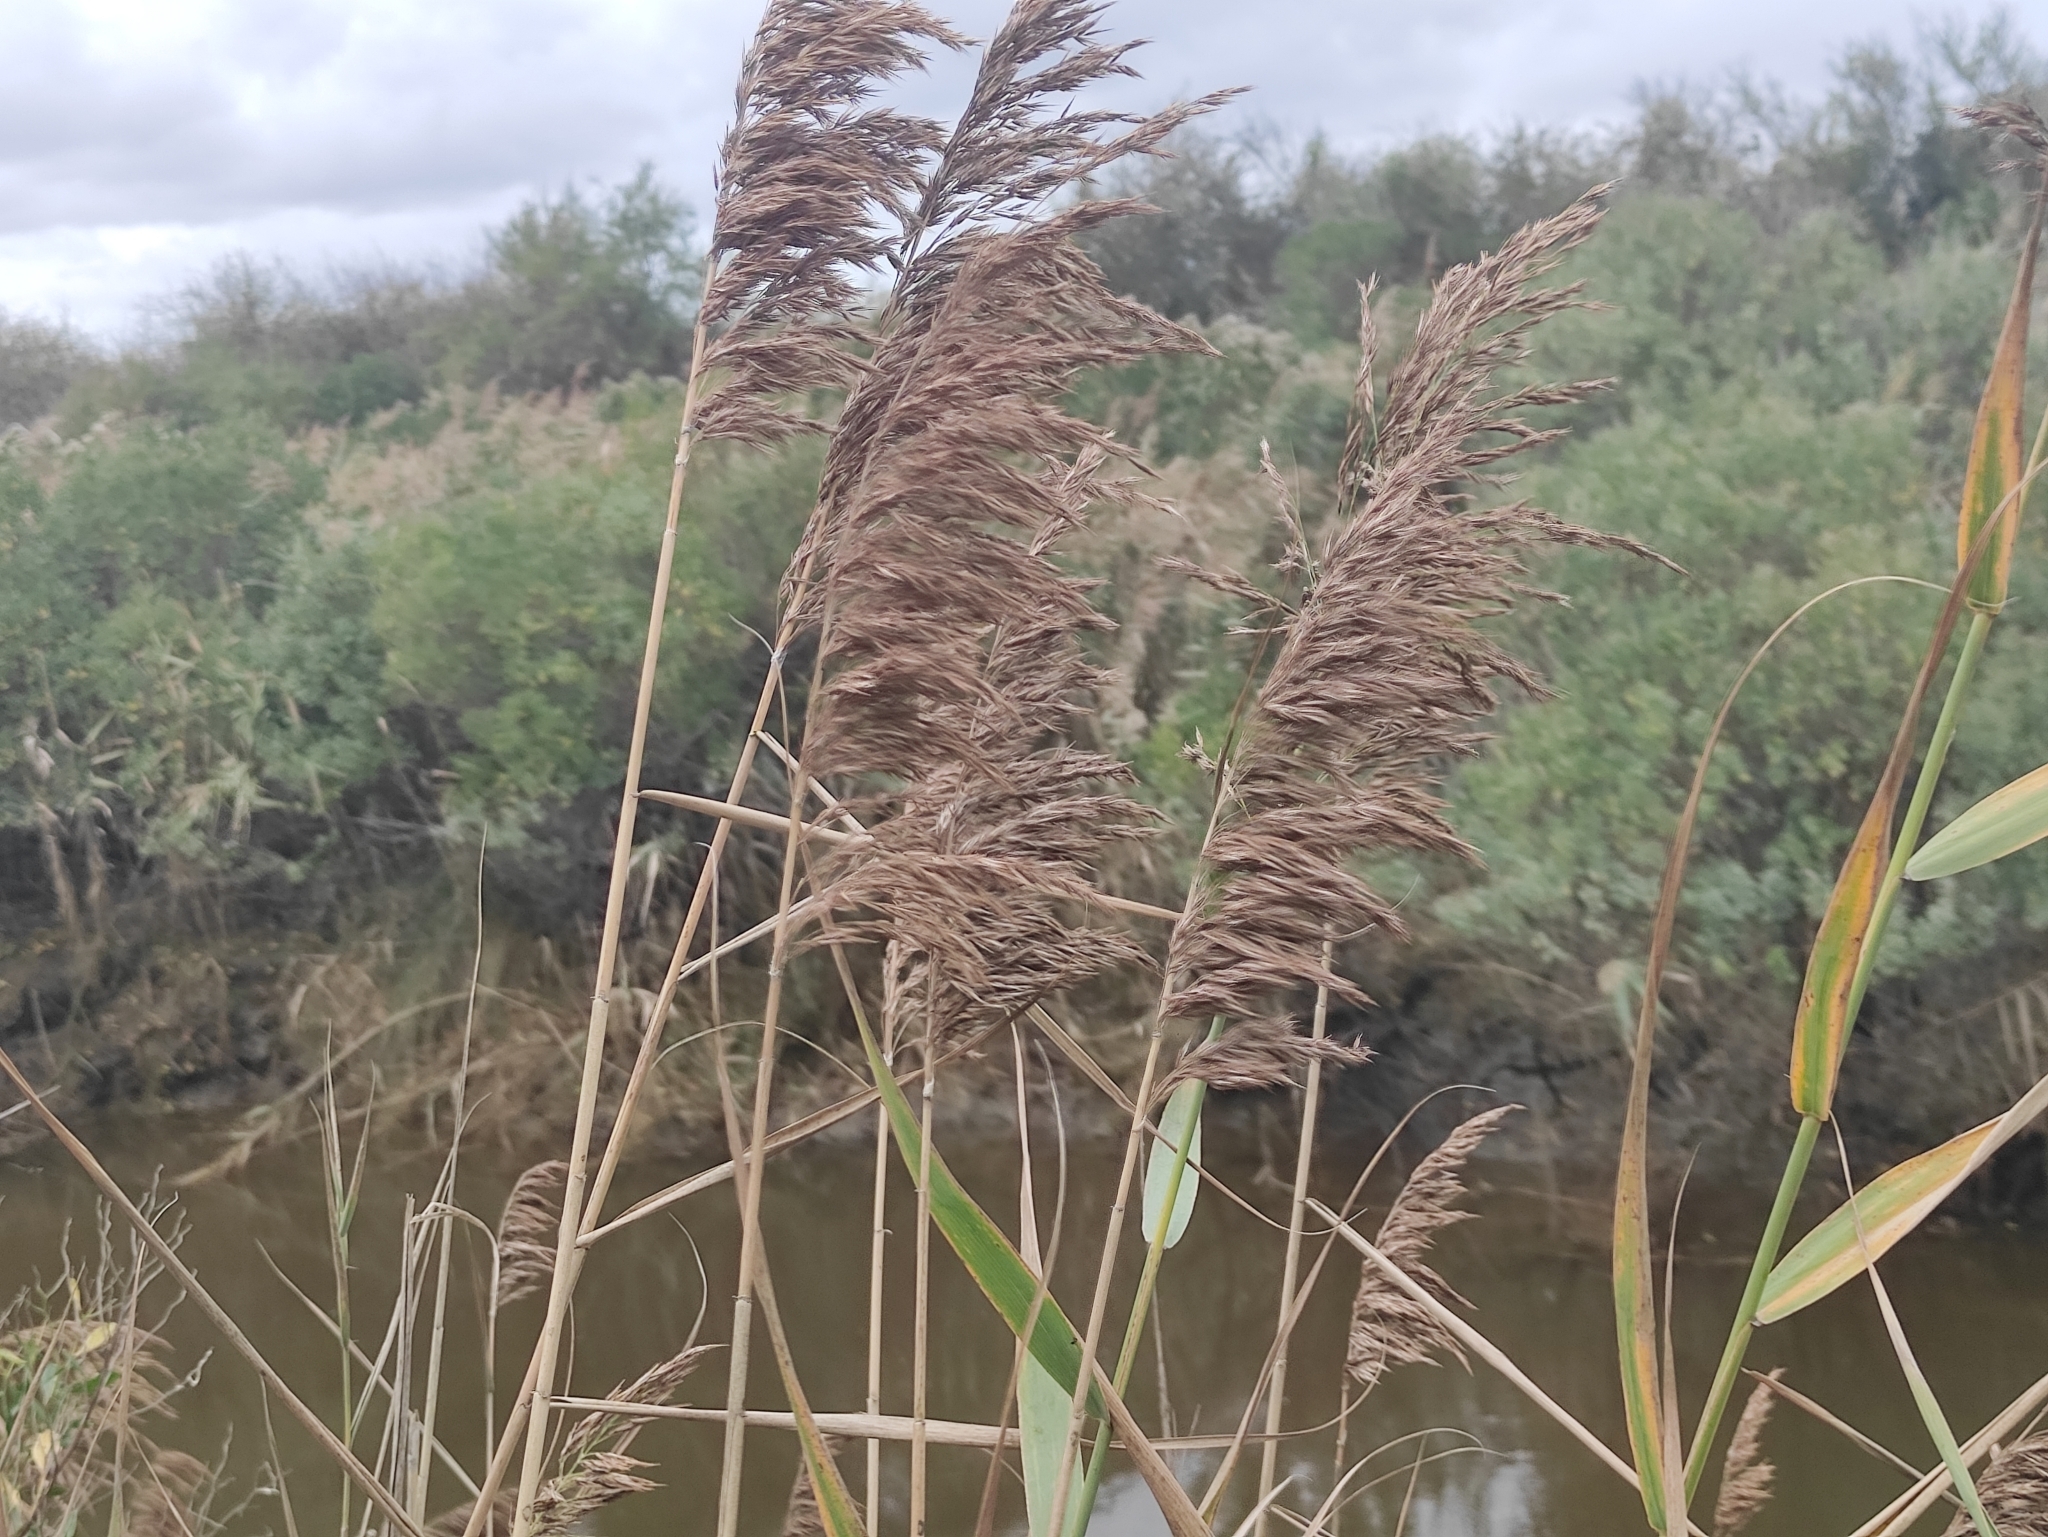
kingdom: Plantae
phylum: Tracheophyta
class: Liliopsida
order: Poales
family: Poaceae
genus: Phragmites
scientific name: Phragmites australis
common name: Common reed
